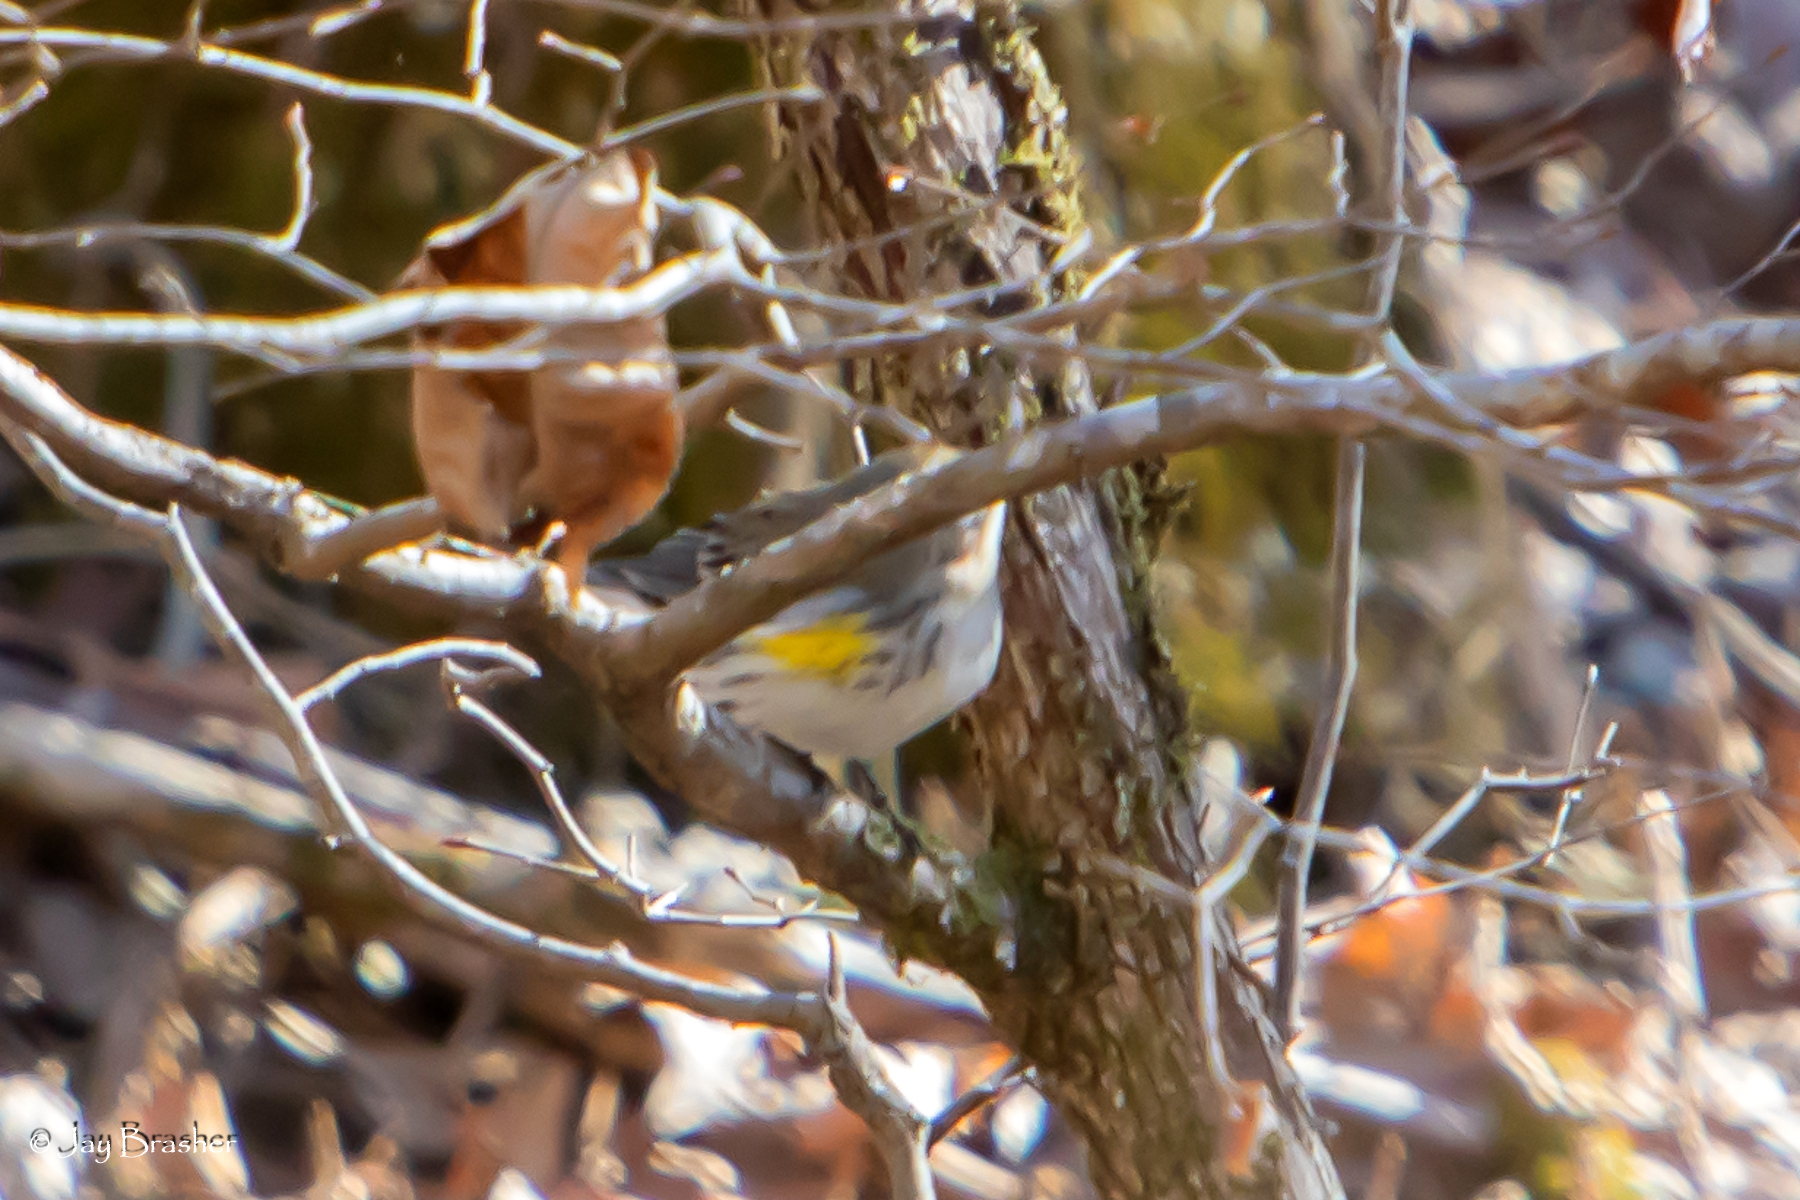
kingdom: Animalia
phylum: Chordata
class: Aves
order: Passeriformes
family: Parulidae
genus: Setophaga
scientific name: Setophaga coronata
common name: Myrtle warbler
